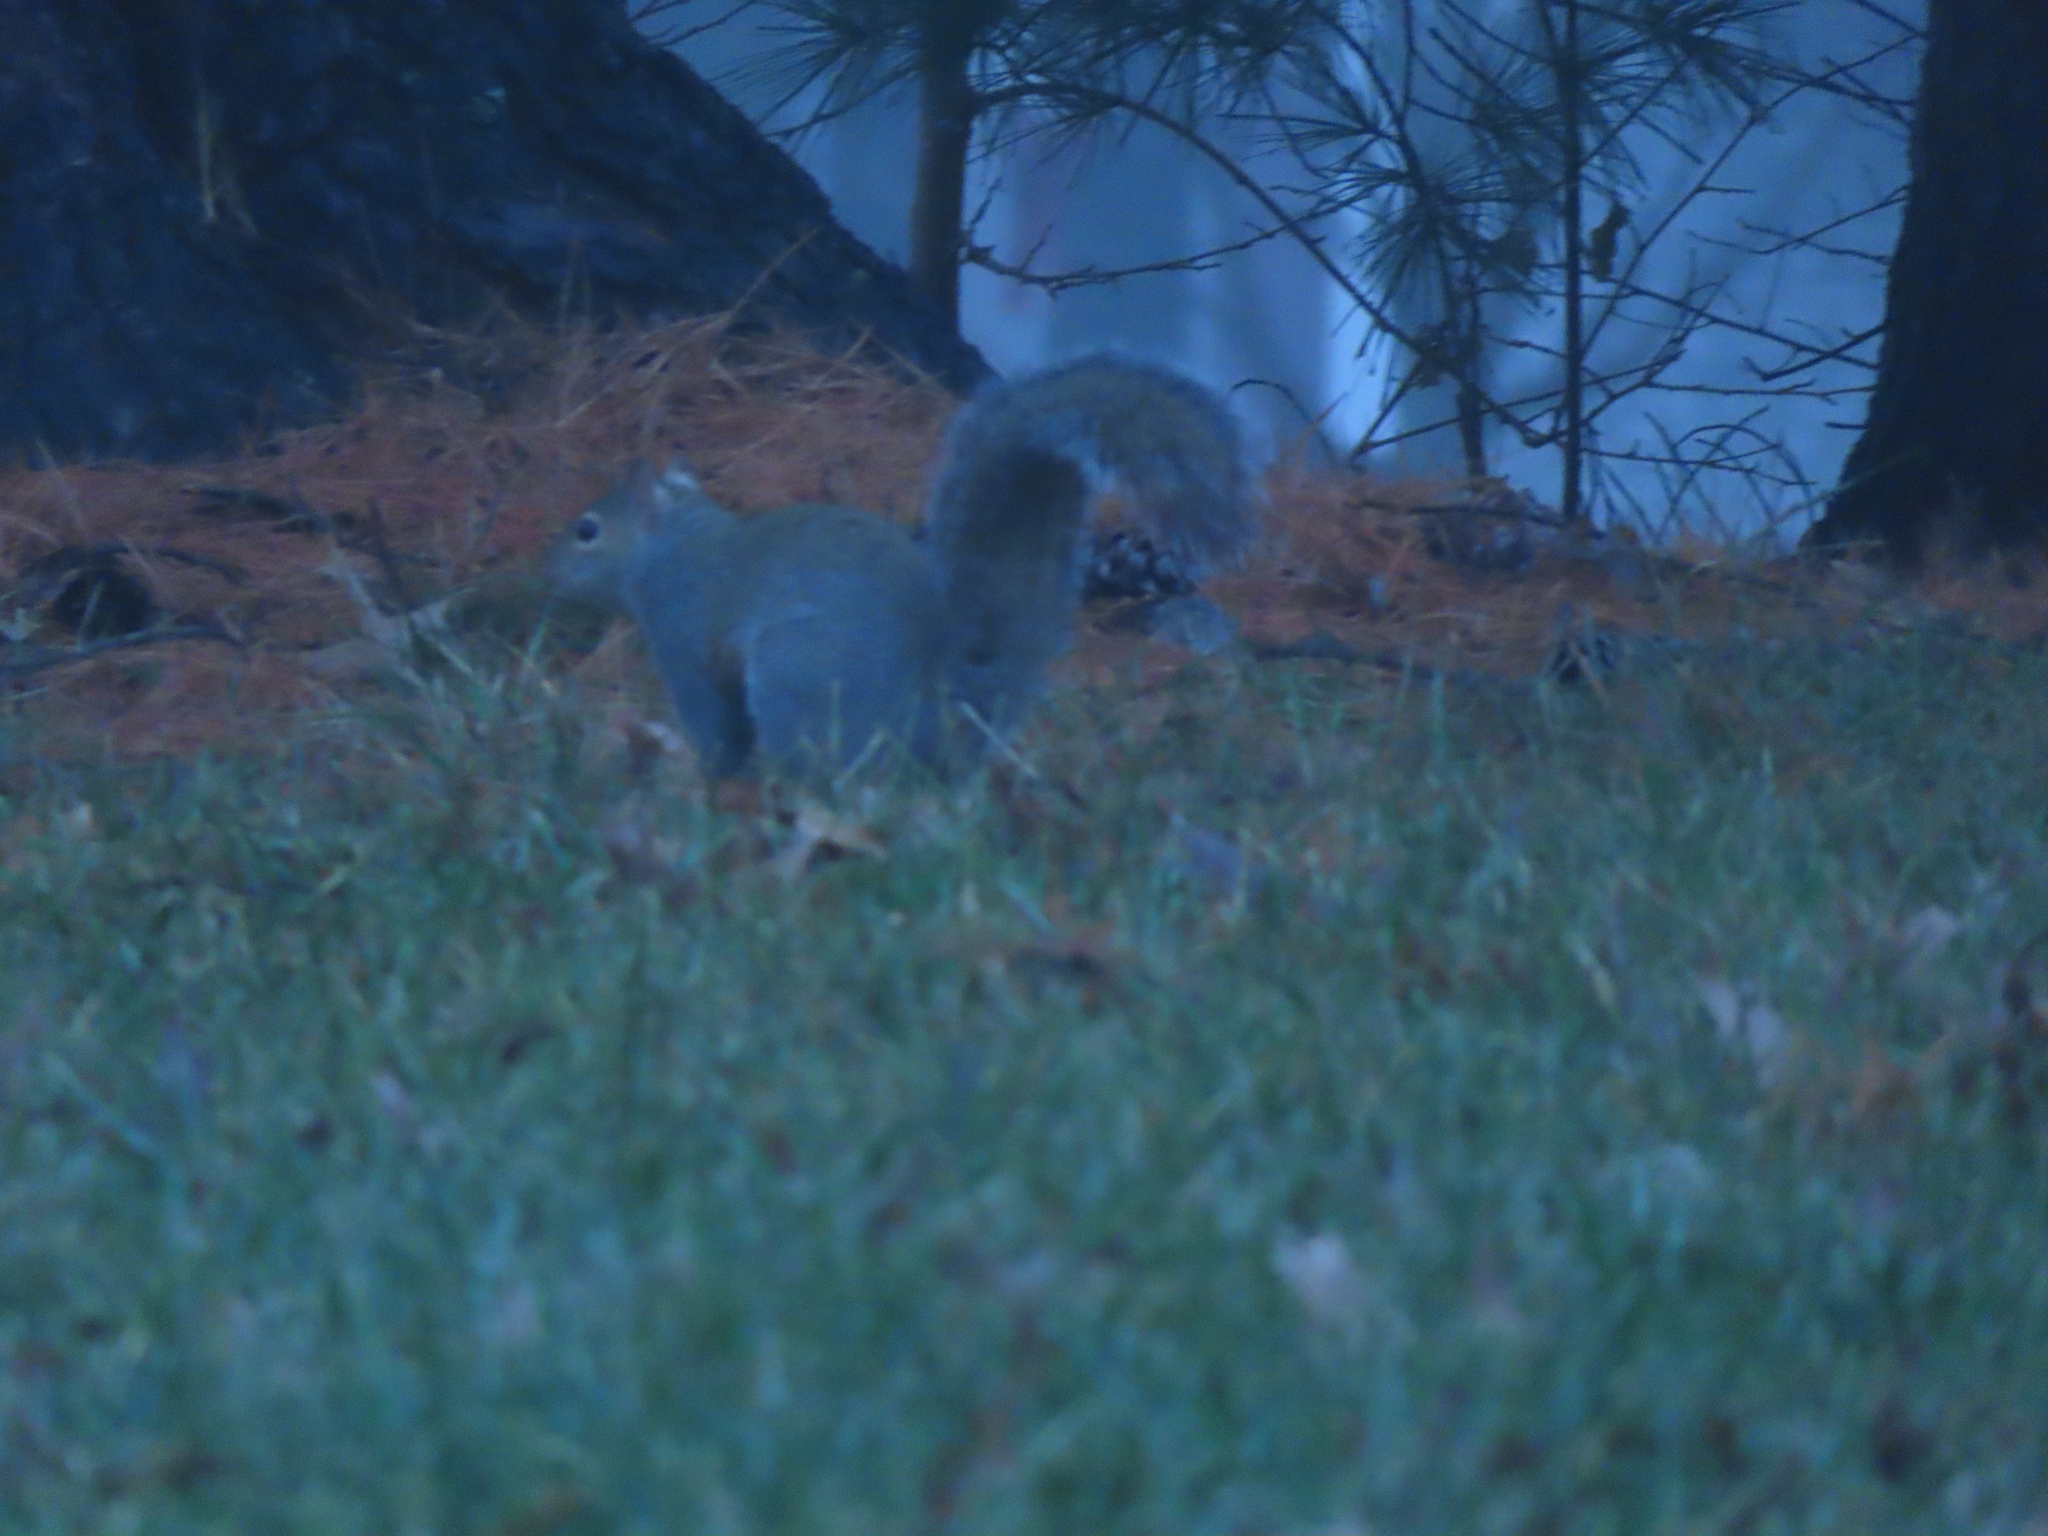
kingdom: Animalia
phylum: Chordata
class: Mammalia
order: Rodentia
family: Sciuridae
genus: Sciurus
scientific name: Sciurus carolinensis
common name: Eastern gray squirrel
